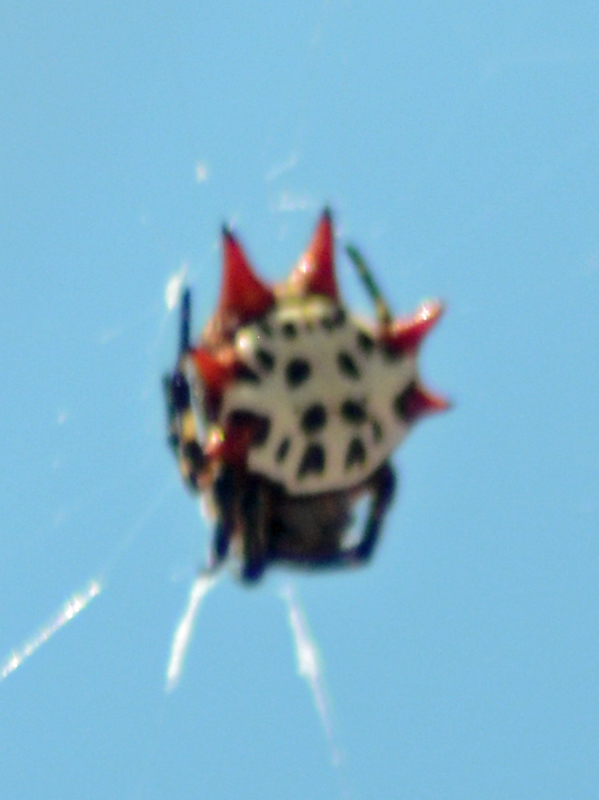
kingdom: Animalia
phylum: Arthropoda
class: Arachnida
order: Araneae
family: Araneidae
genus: Gasteracantha
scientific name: Gasteracantha cancriformis
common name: Orb weavers
